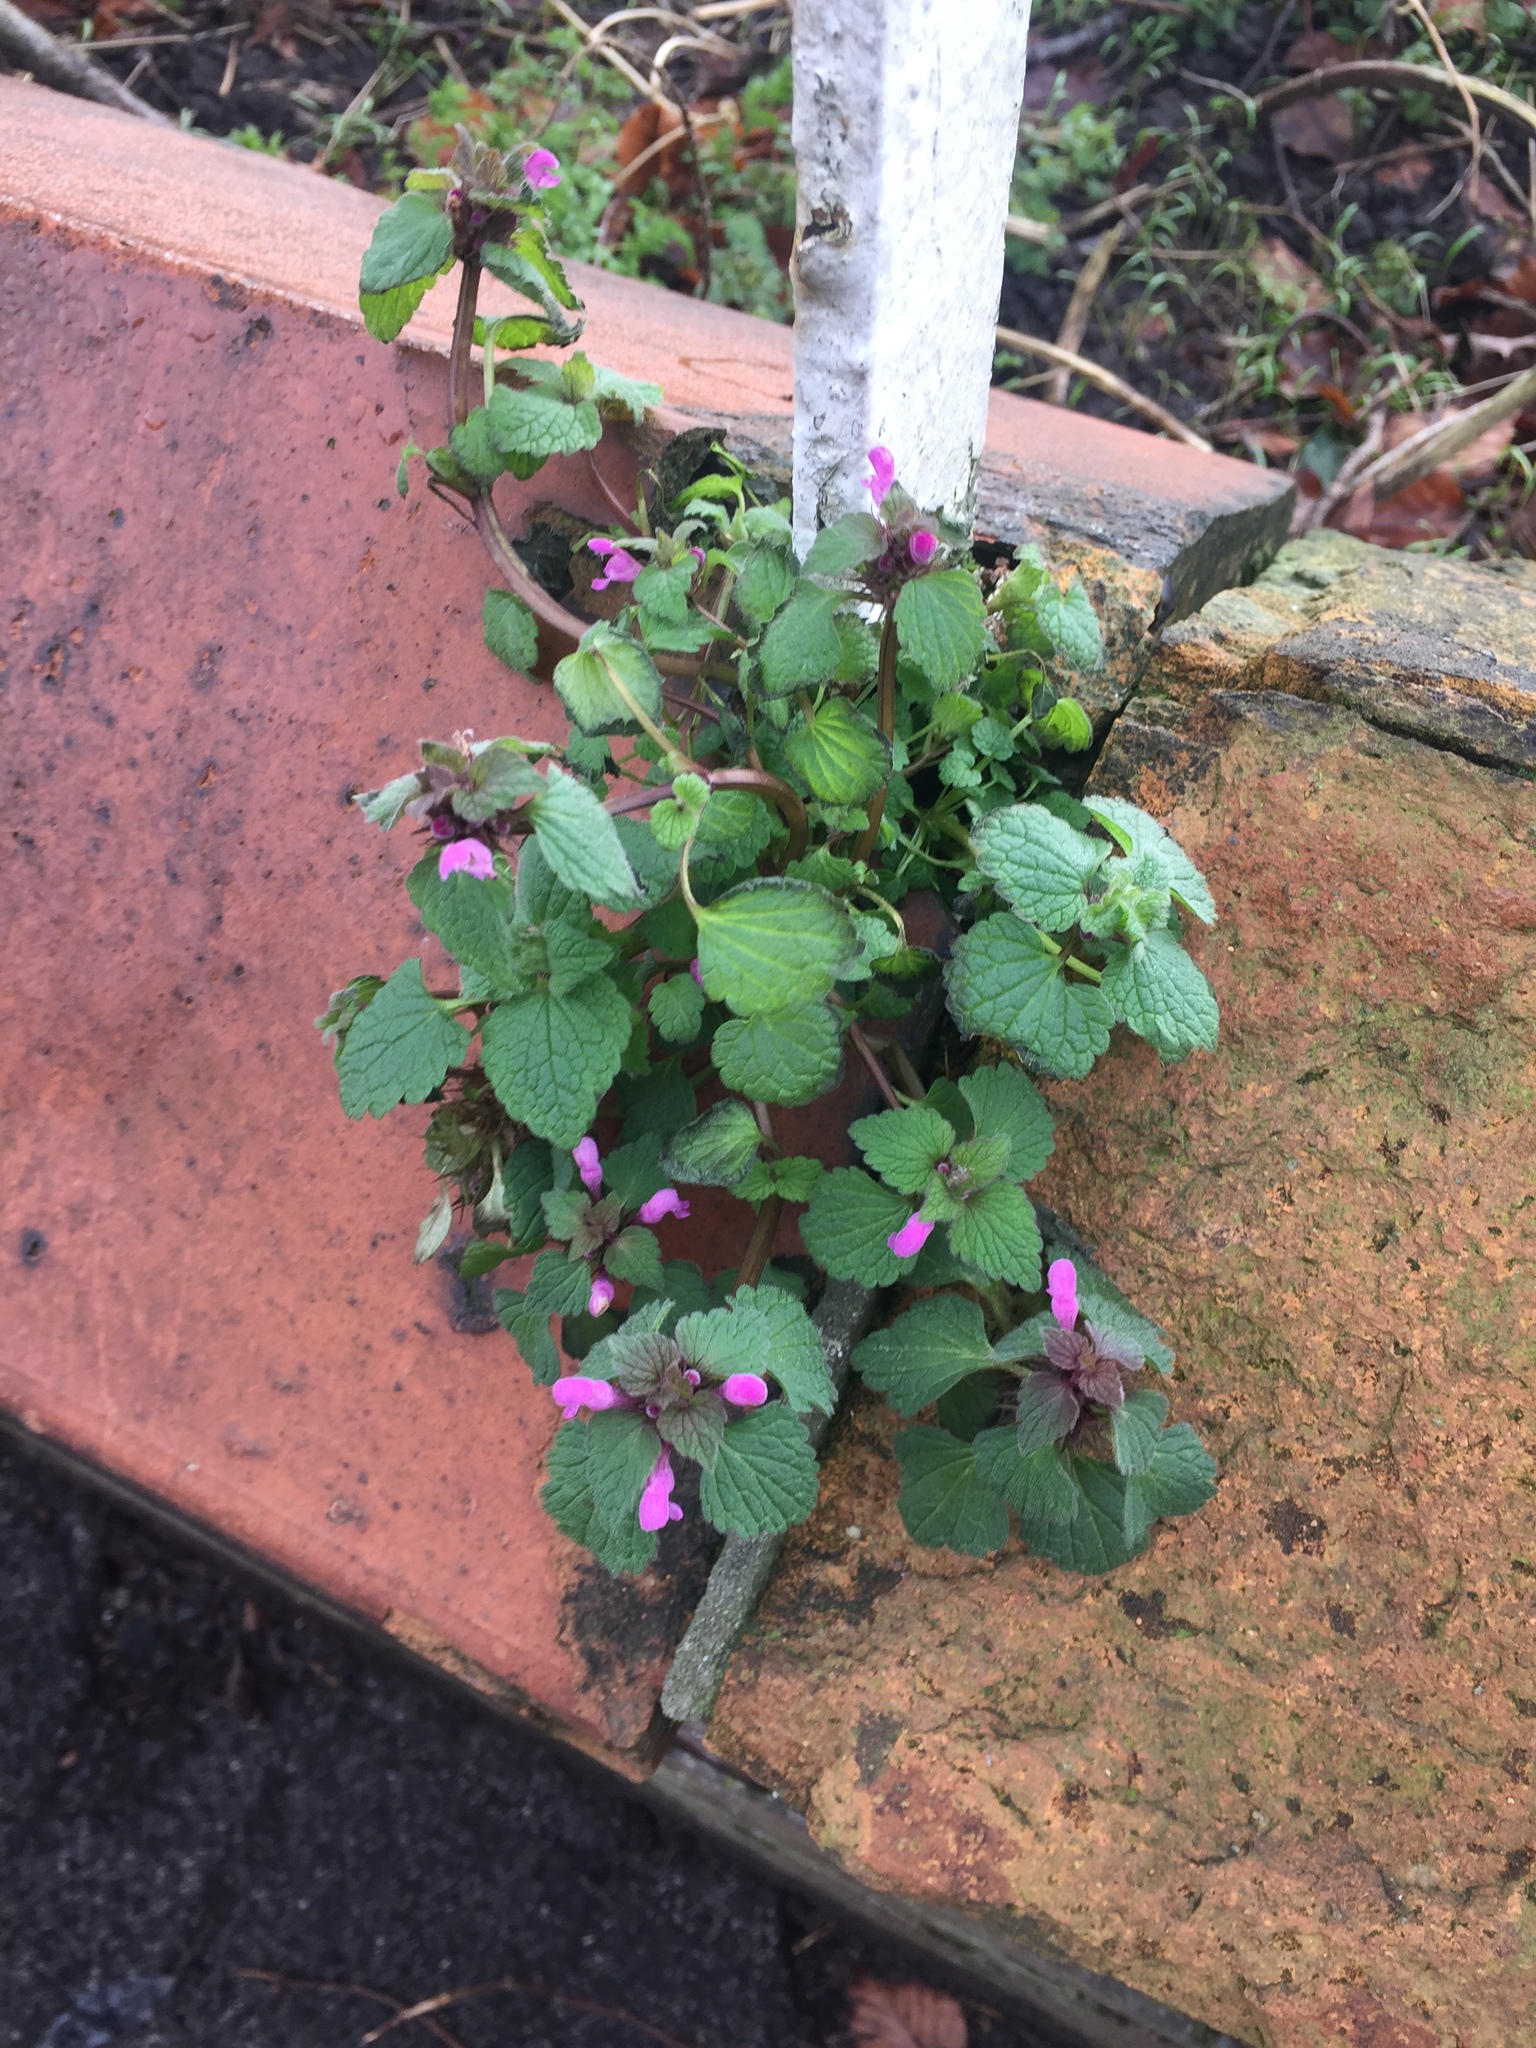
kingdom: Plantae
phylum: Tracheophyta
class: Magnoliopsida
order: Lamiales
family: Lamiaceae
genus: Lamium
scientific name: Lamium purpureum
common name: Red dead-nettle
